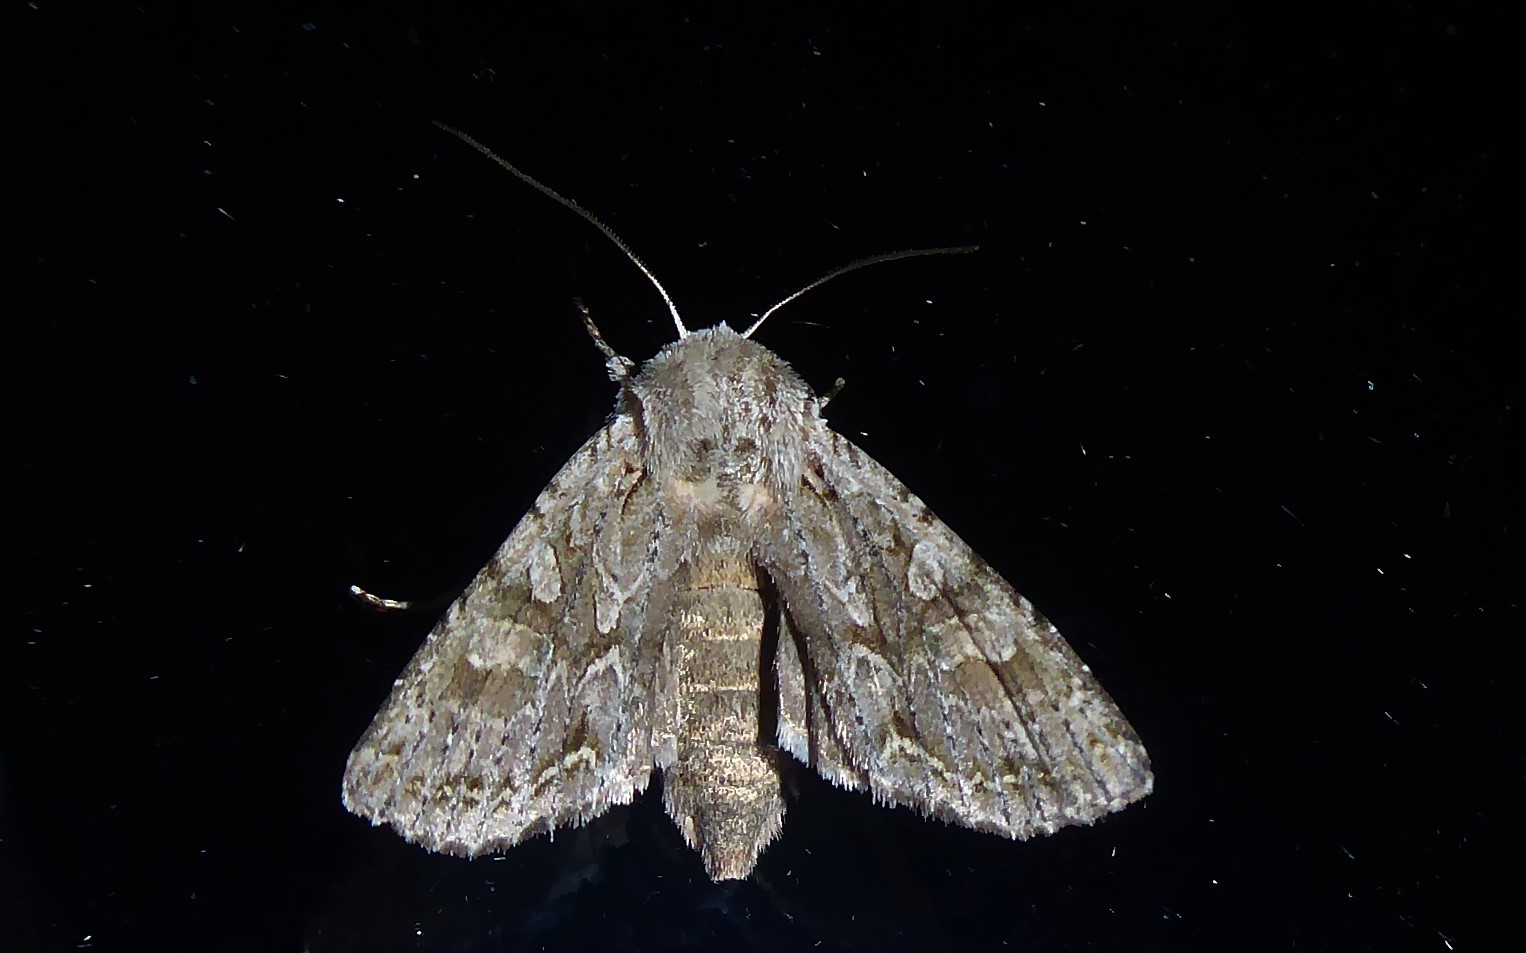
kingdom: Animalia
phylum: Arthropoda
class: Insecta
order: Lepidoptera
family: Noctuidae
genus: Ichneutica
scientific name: Ichneutica mutans
